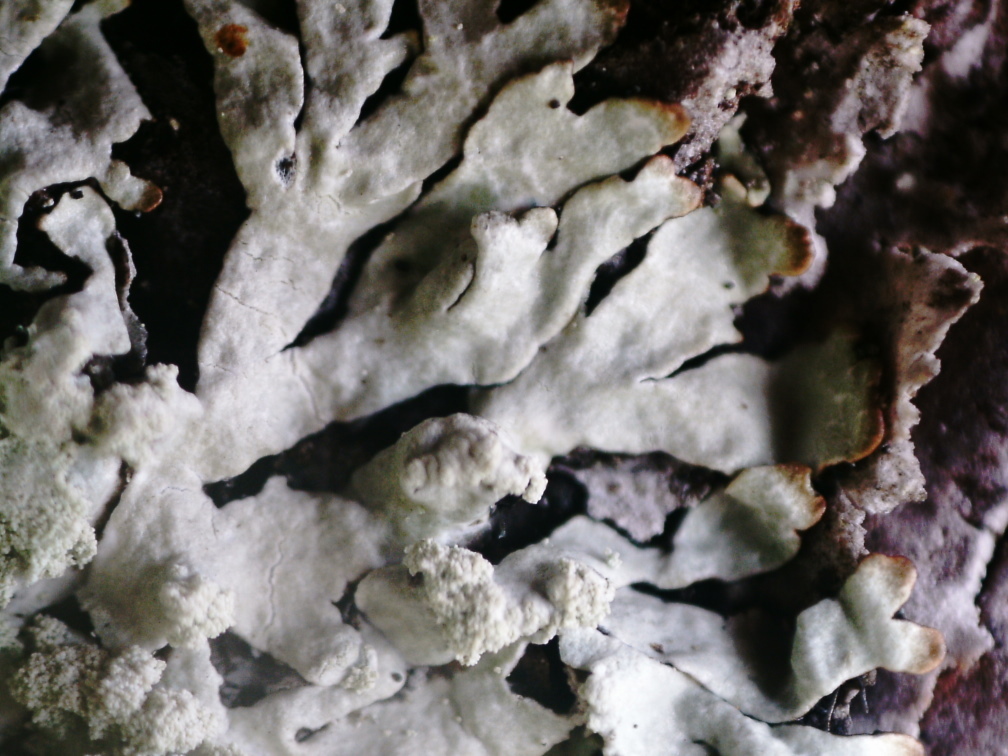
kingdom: Fungi
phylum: Ascomycota
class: Lecanoromycetes
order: Lecanorales
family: Parmeliaceae
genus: Parmeliopsis
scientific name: Parmeliopsis hyperopta
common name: Grey starburst lichen
